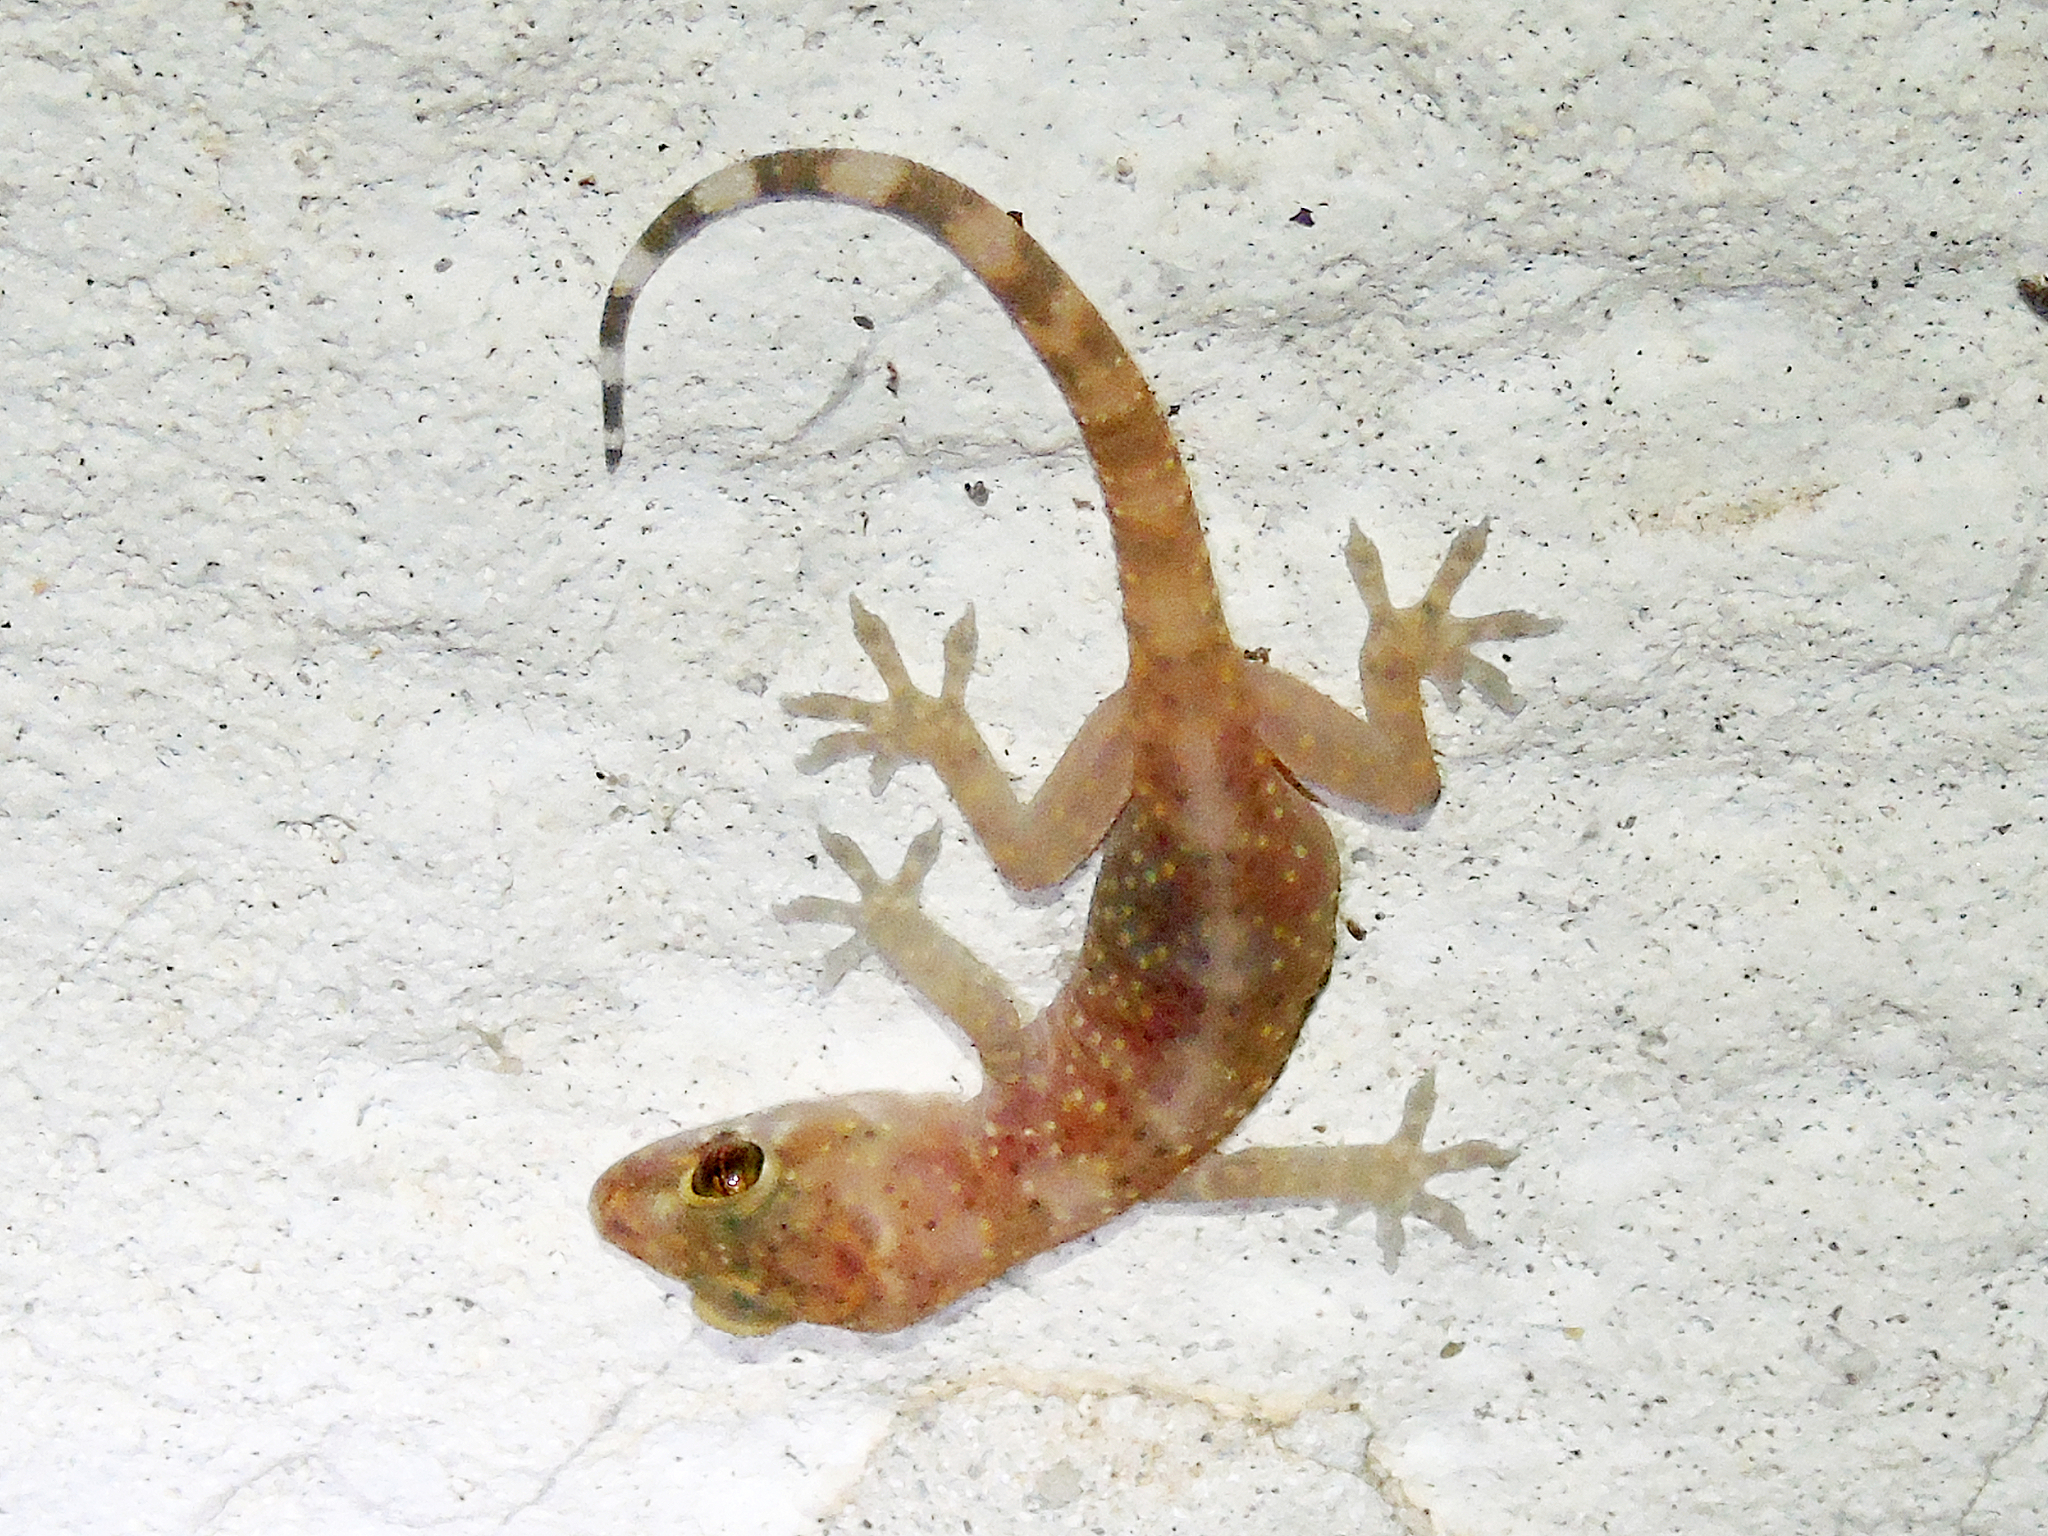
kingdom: Animalia
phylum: Chordata
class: Squamata
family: Gekkonidae
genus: Hemidactylus
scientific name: Hemidactylus turcicus
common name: Turkish gecko
